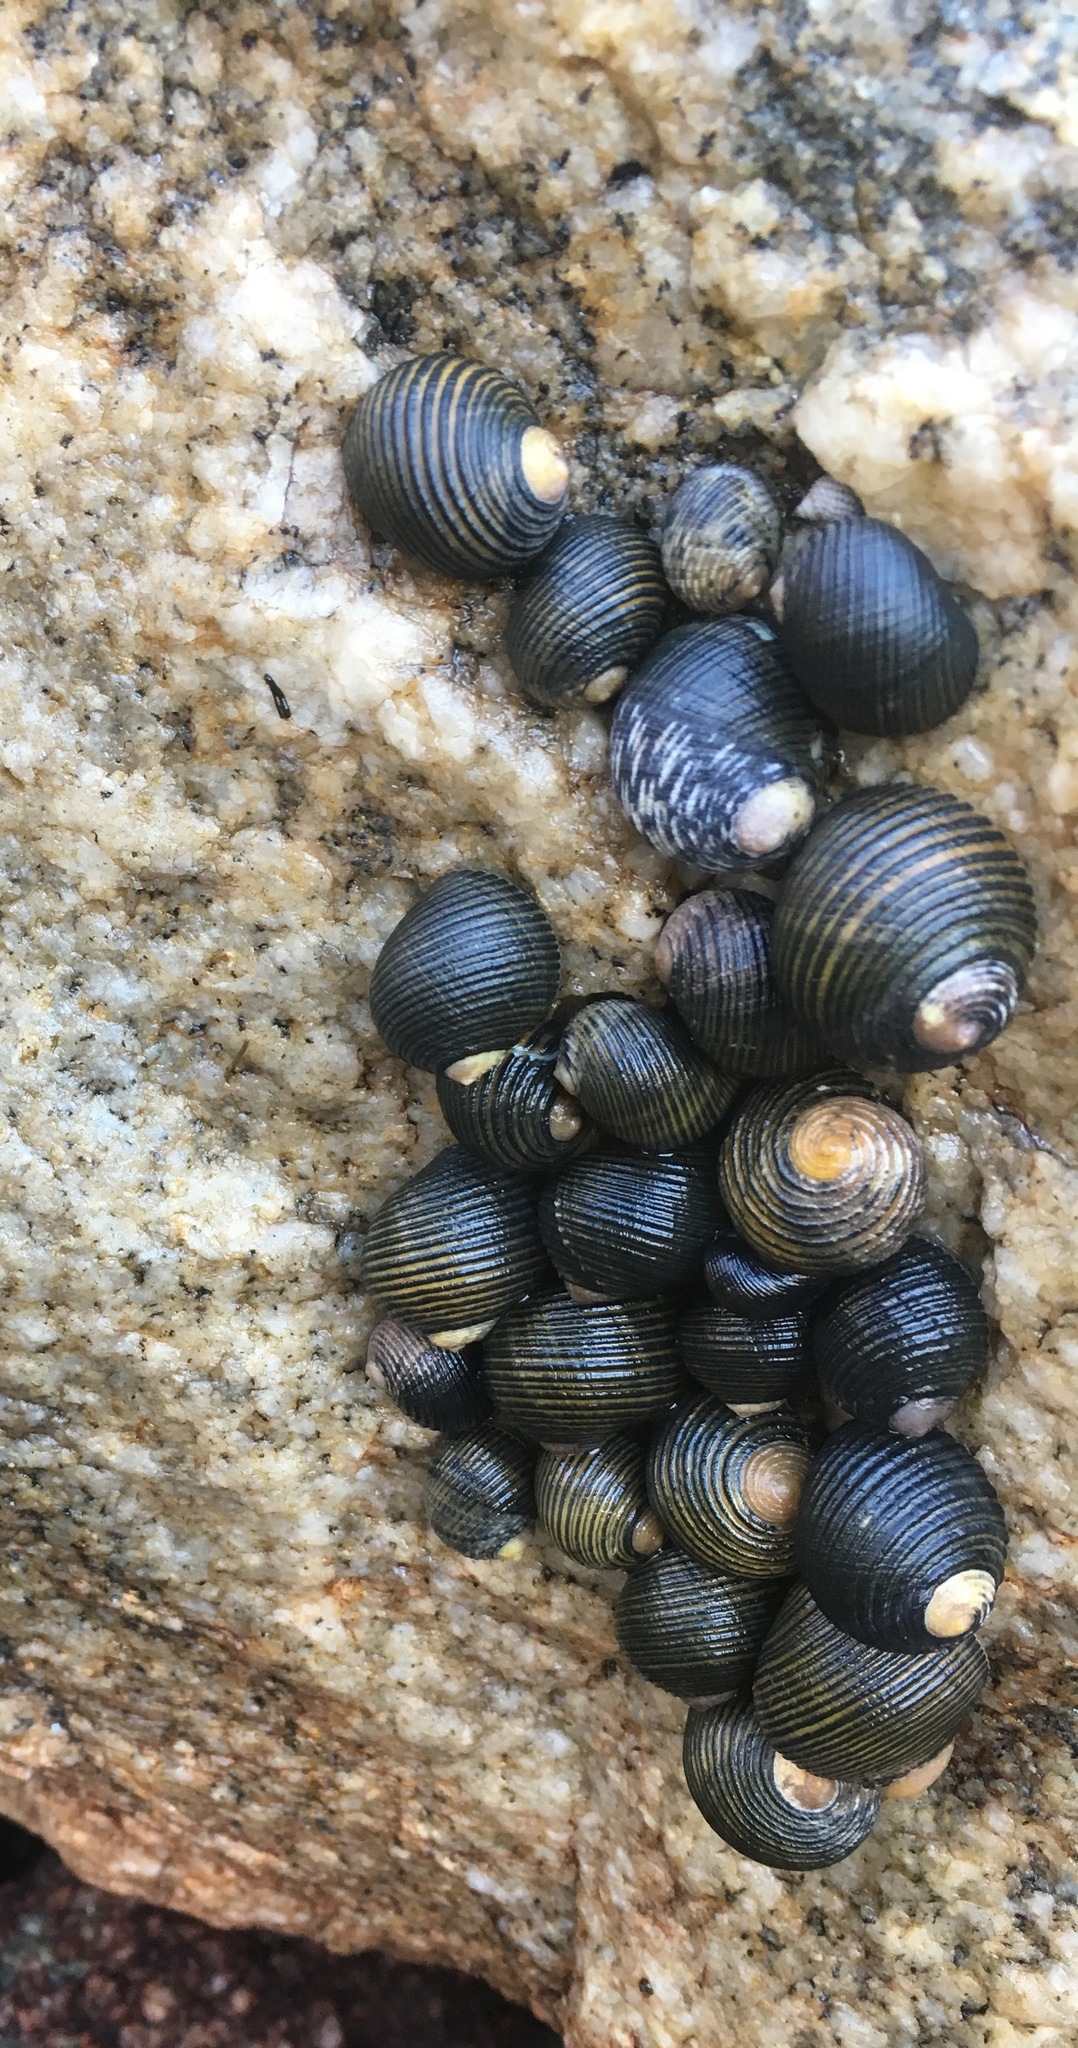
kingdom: Animalia
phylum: Mollusca
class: Gastropoda
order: Cycloneritida
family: Neritidae
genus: Nerita
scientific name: Nerita scabricosta
